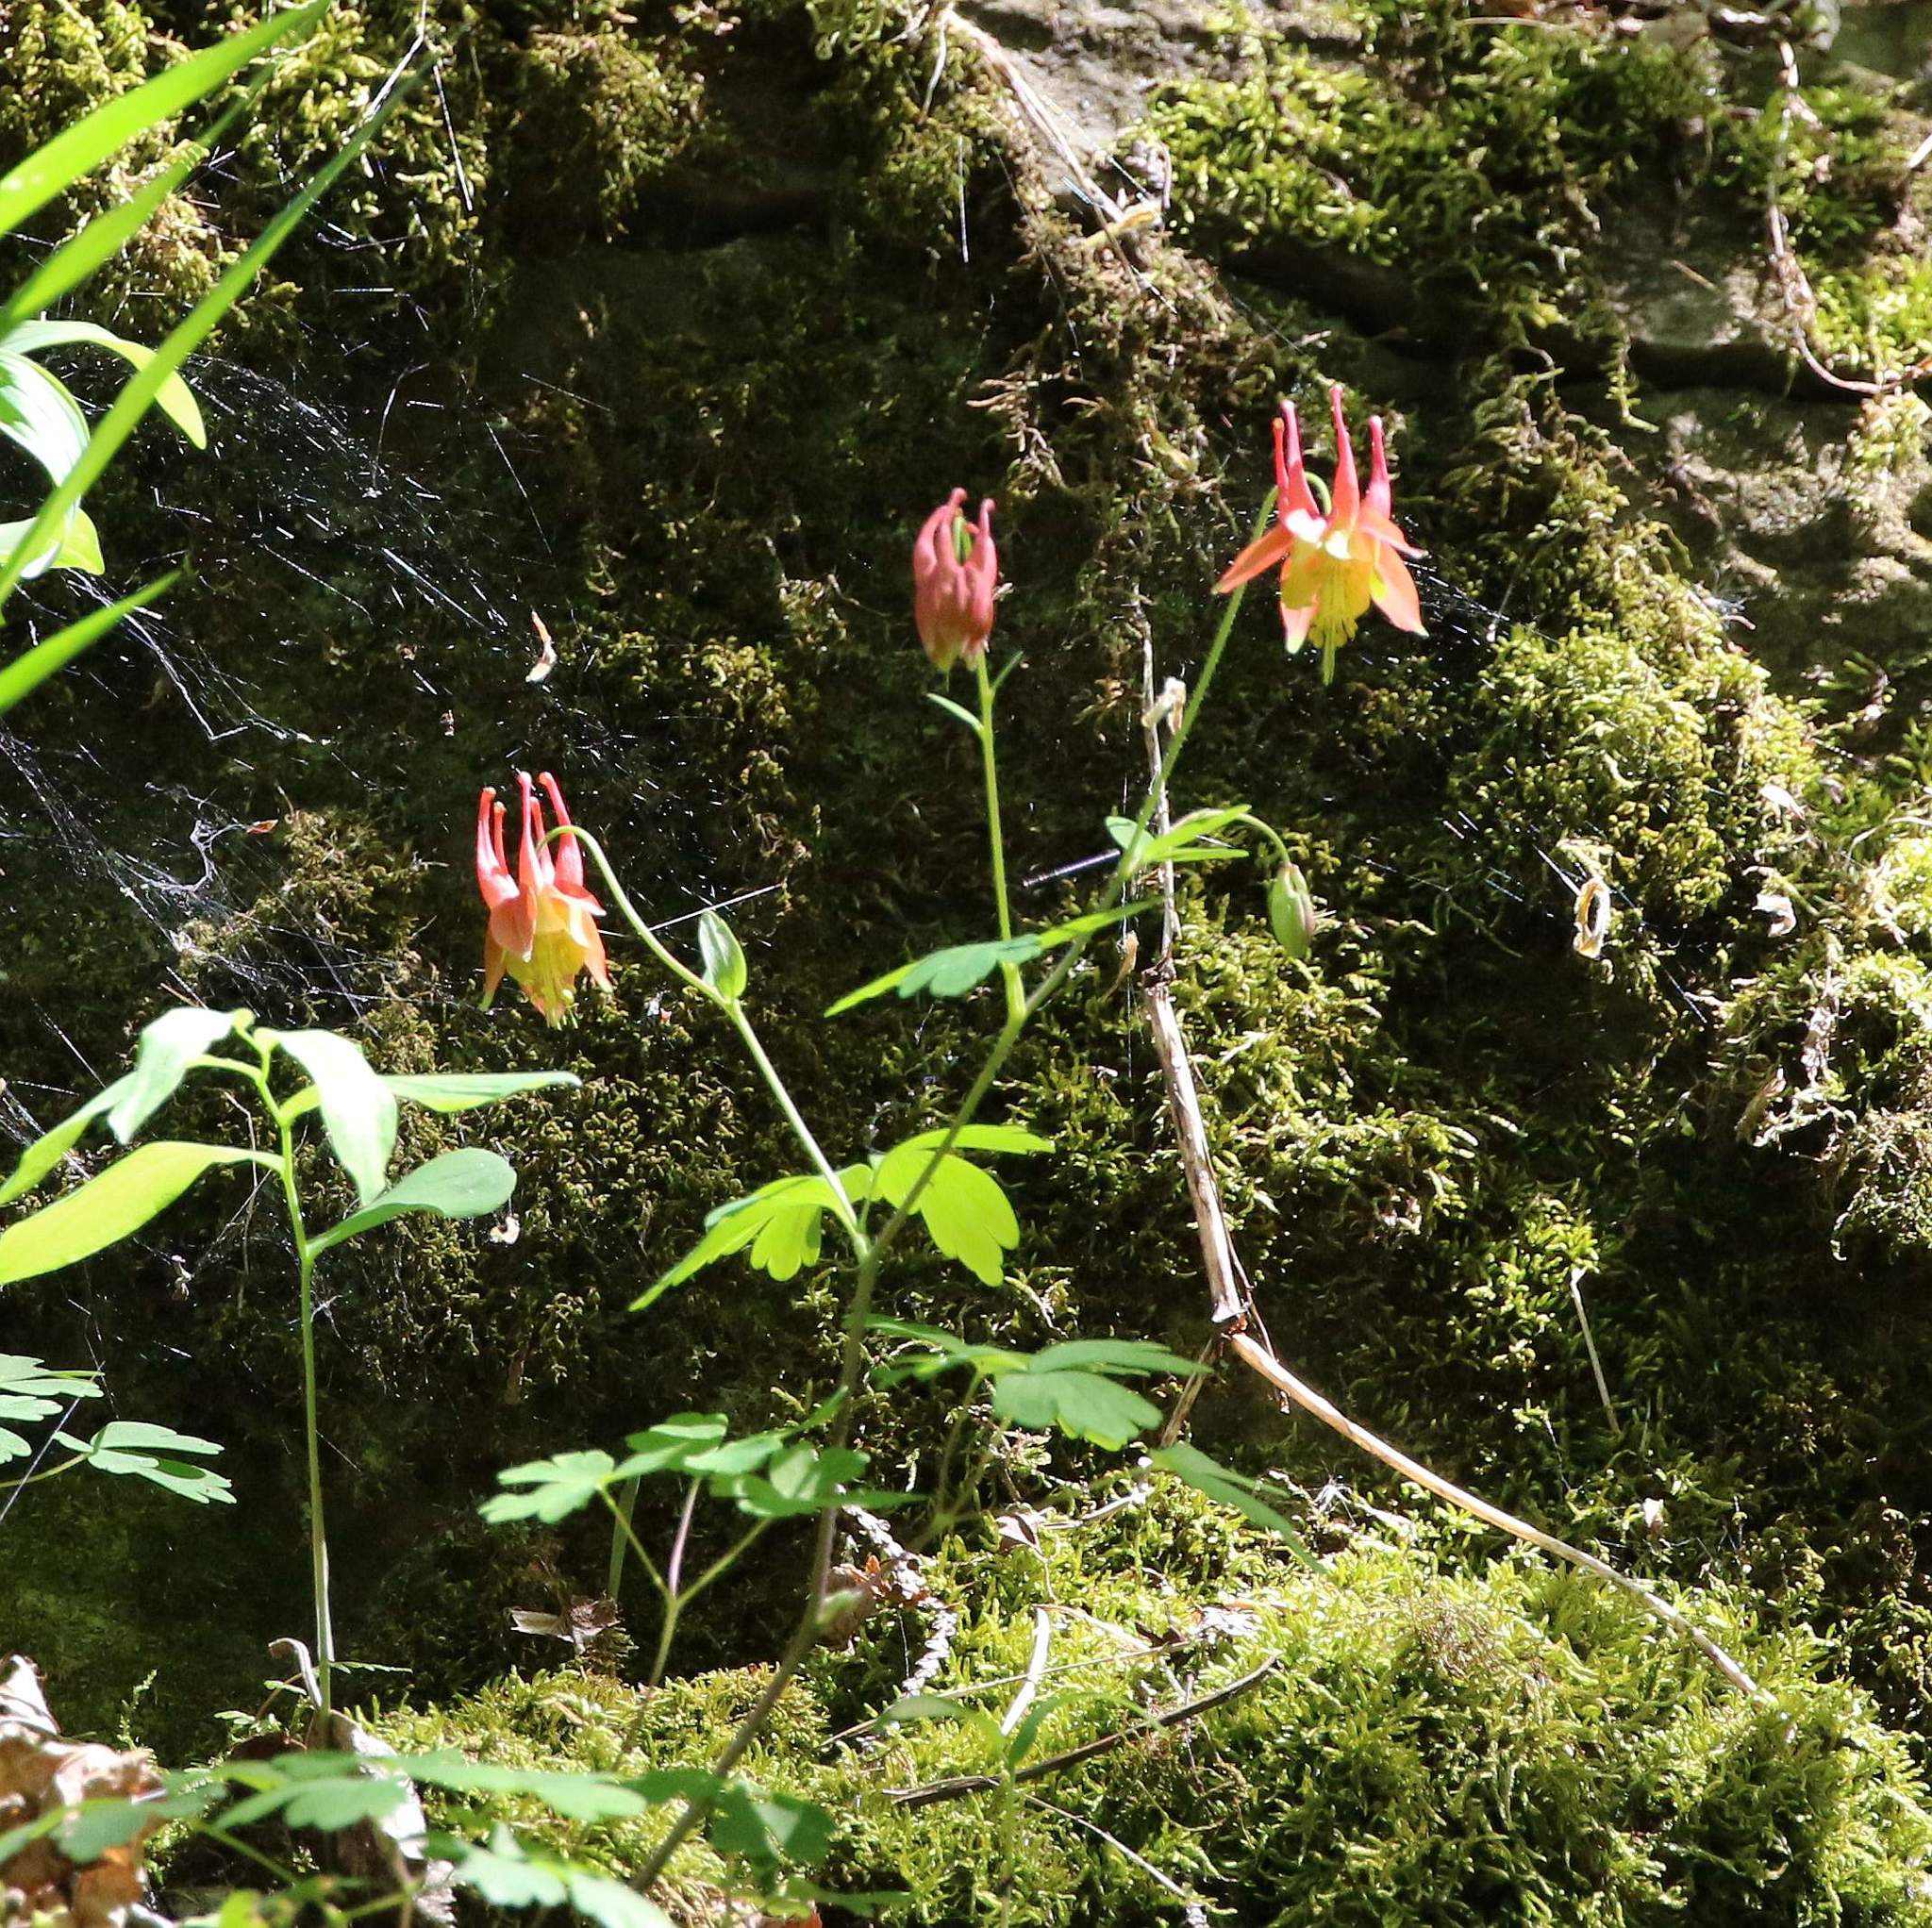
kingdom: Plantae
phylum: Tracheophyta
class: Magnoliopsida
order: Ranunculales
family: Ranunculaceae
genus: Aquilegia
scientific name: Aquilegia canadensis
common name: American columbine
